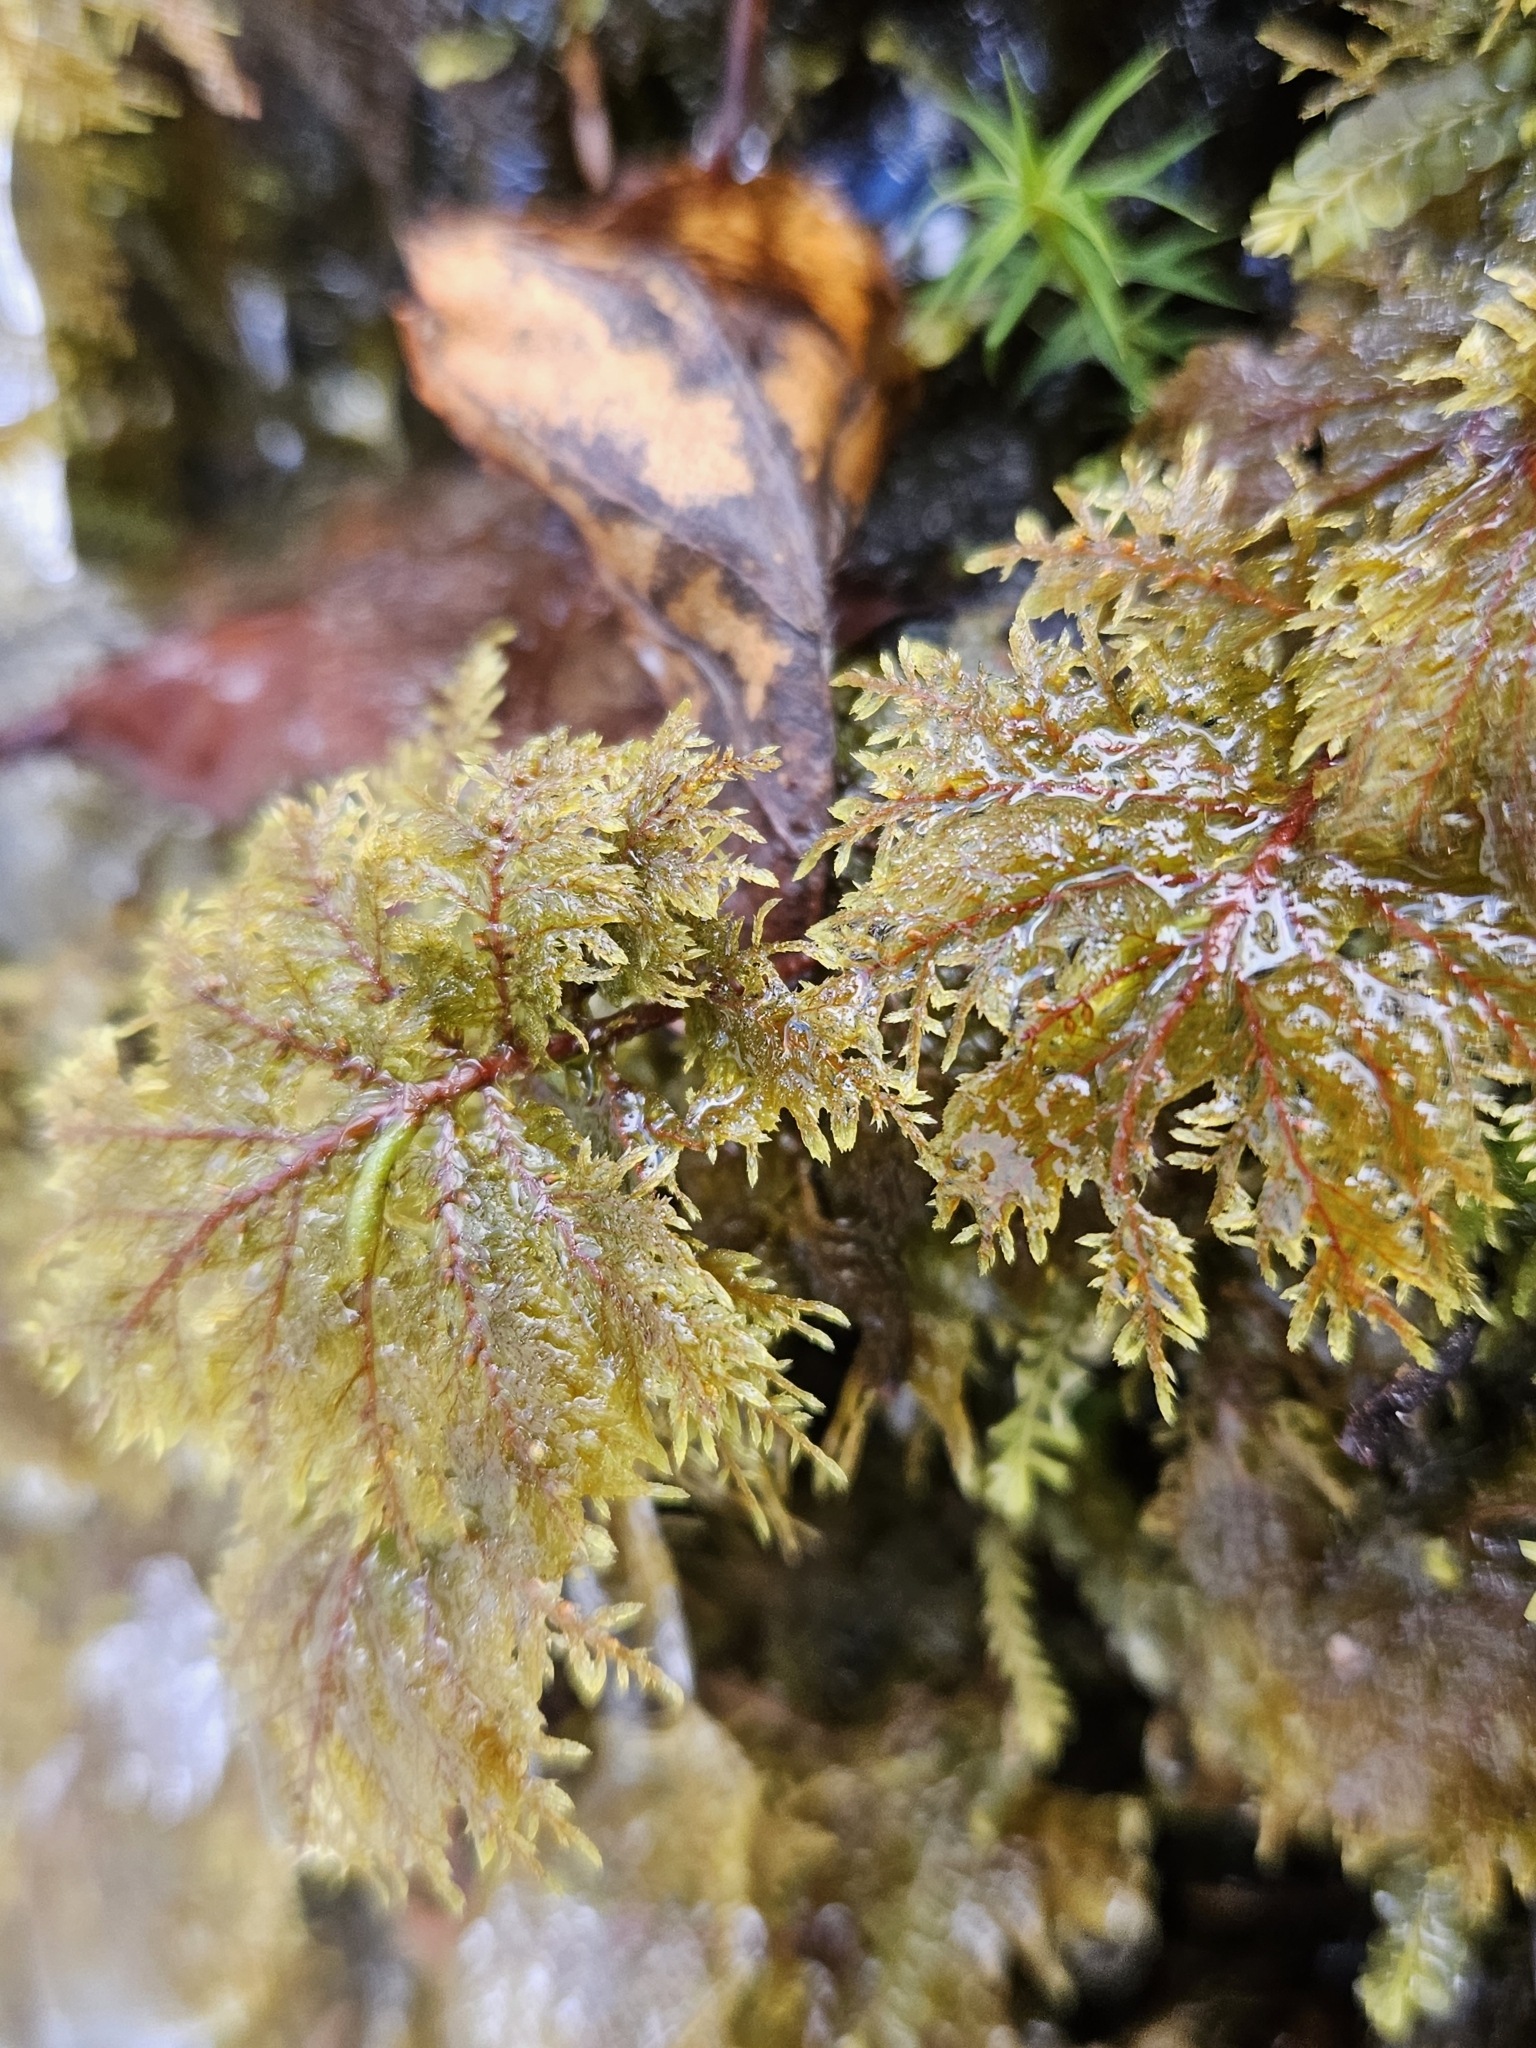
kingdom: Plantae
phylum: Bryophyta
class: Bryopsida
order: Hypnales
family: Hylocomiaceae
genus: Hylocomium
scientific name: Hylocomium splendens
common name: Stairstep moss
